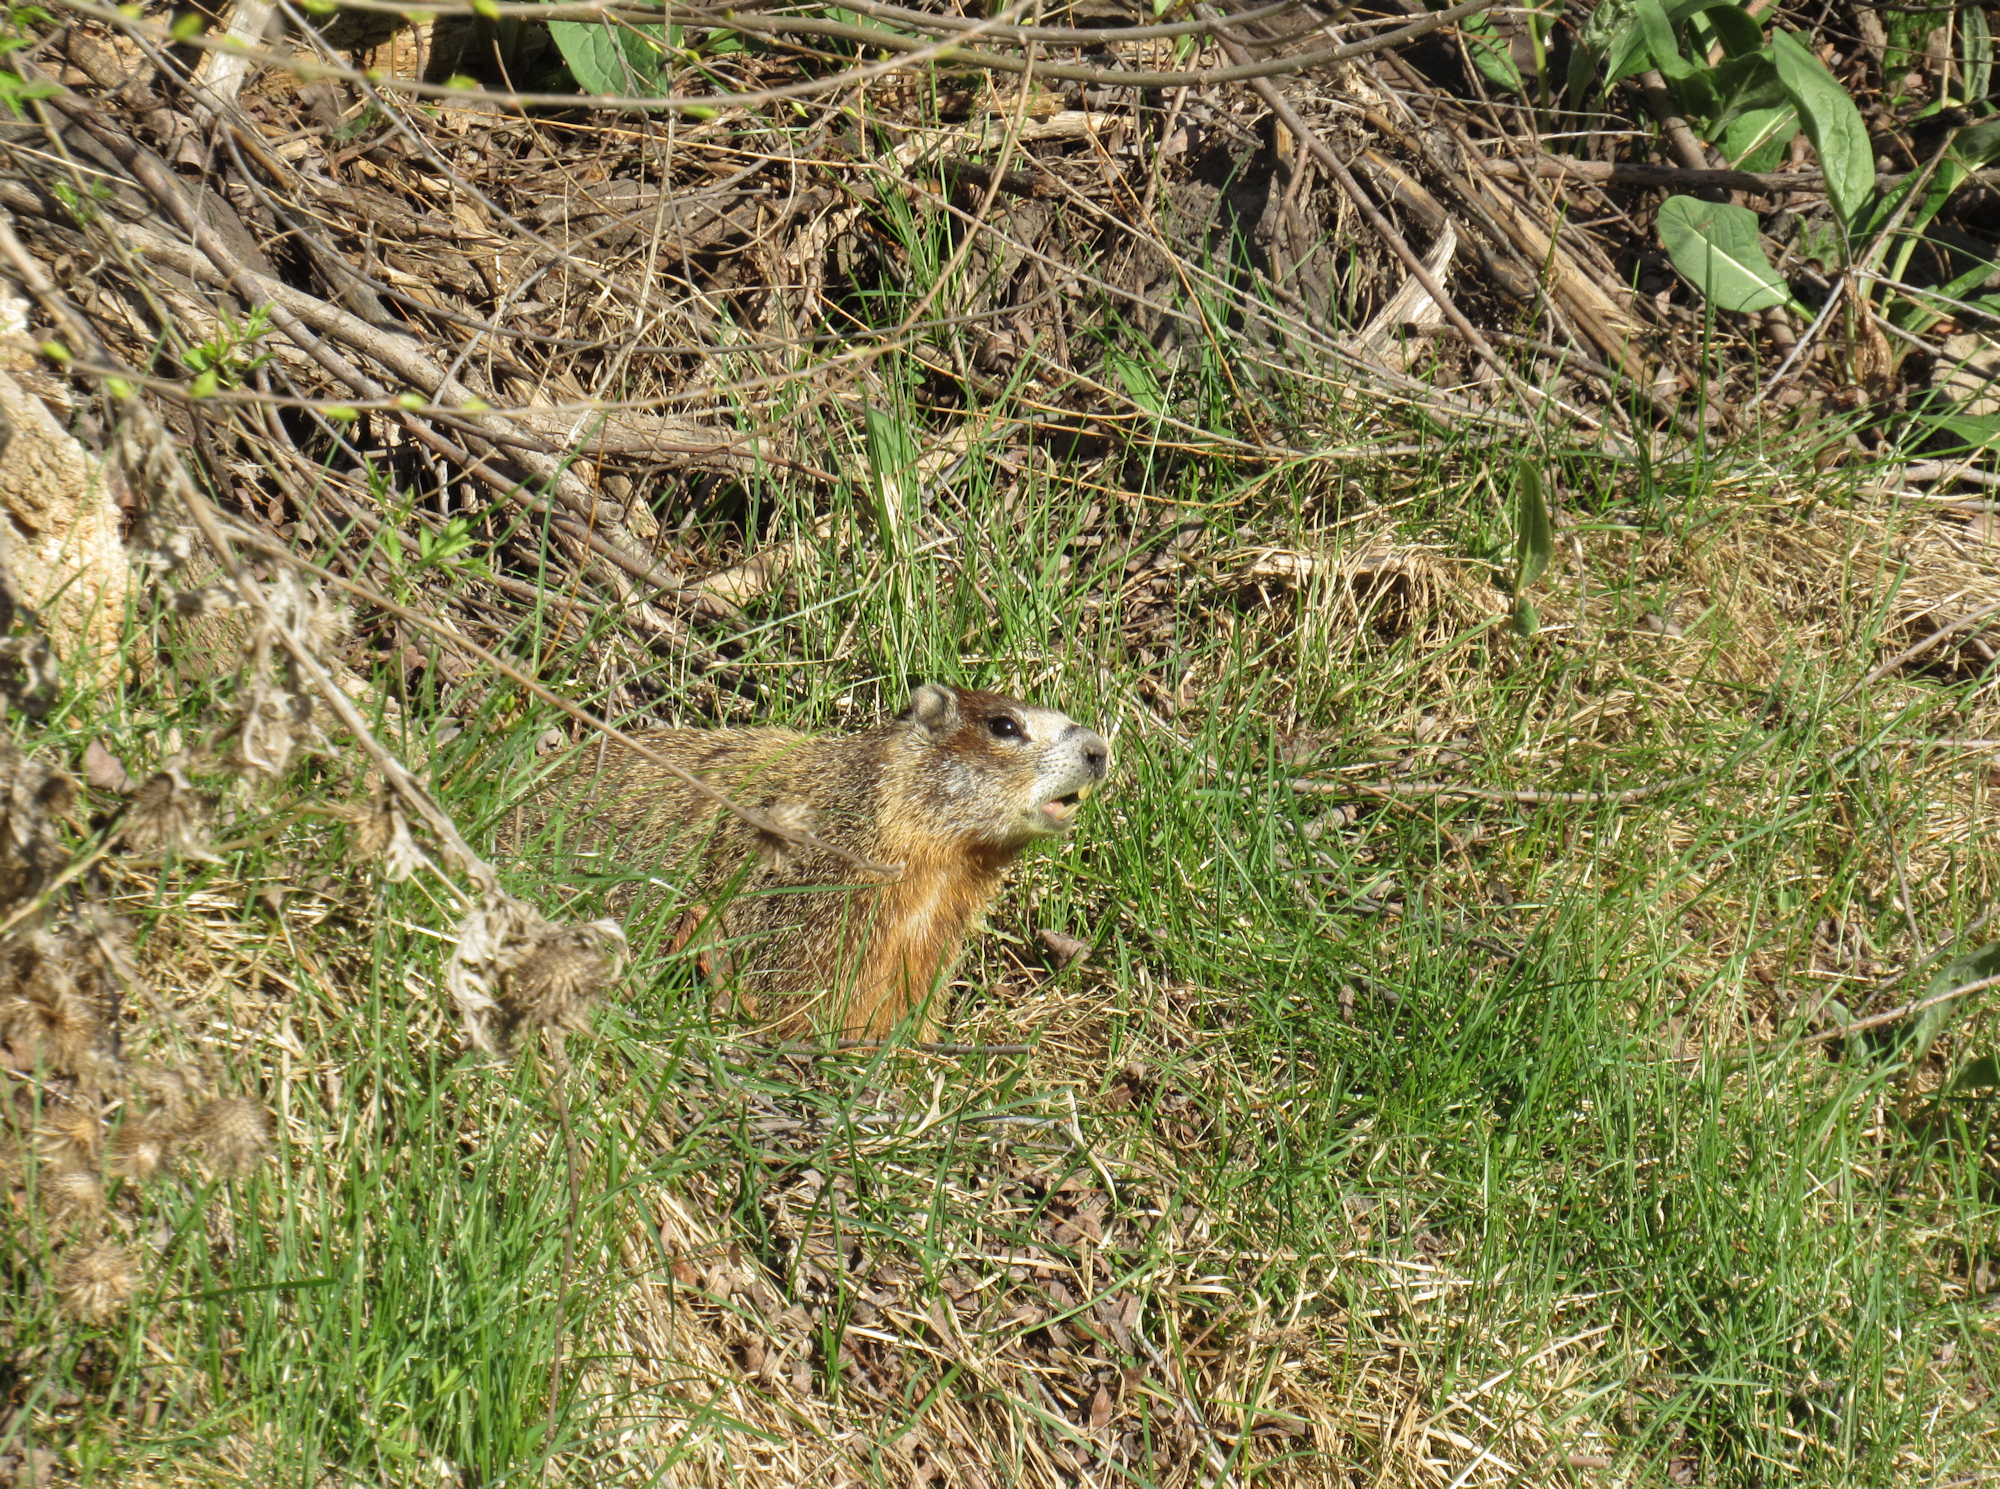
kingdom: Animalia
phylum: Chordata
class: Mammalia
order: Rodentia
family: Sciuridae
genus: Marmota
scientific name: Marmota flaviventris
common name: Yellow-bellied marmot
